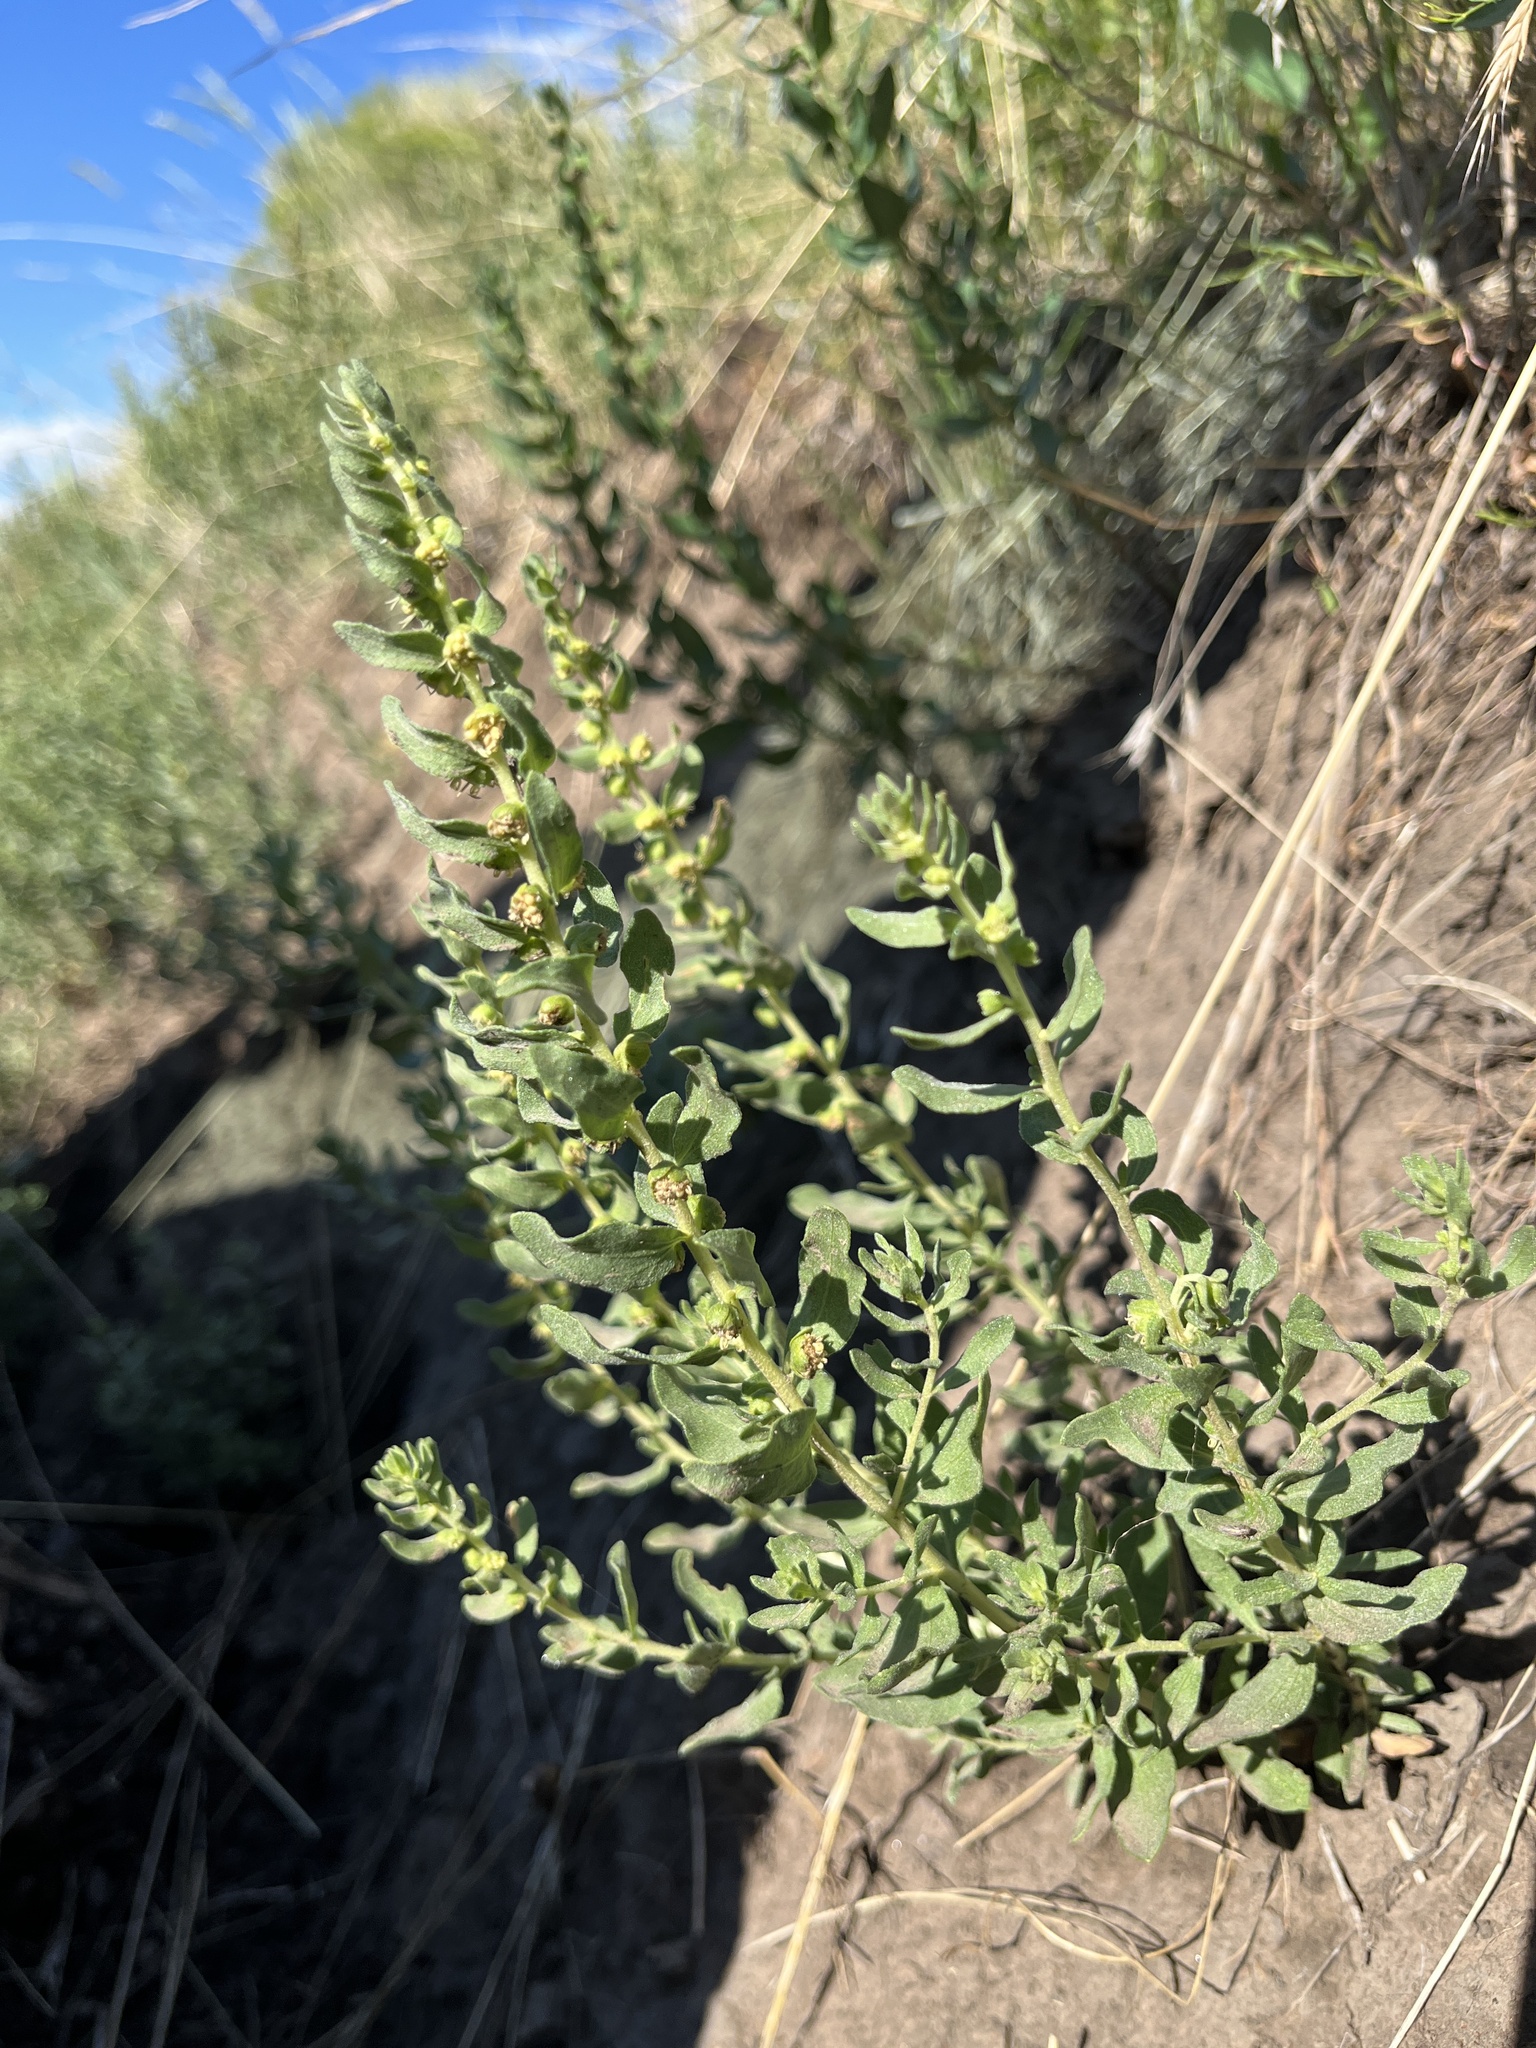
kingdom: Plantae
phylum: Tracheophyta
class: Magnoliopsida
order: Asterales
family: Asteraceae
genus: Iva
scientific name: Iva axillaris
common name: Poverty sumpweed
